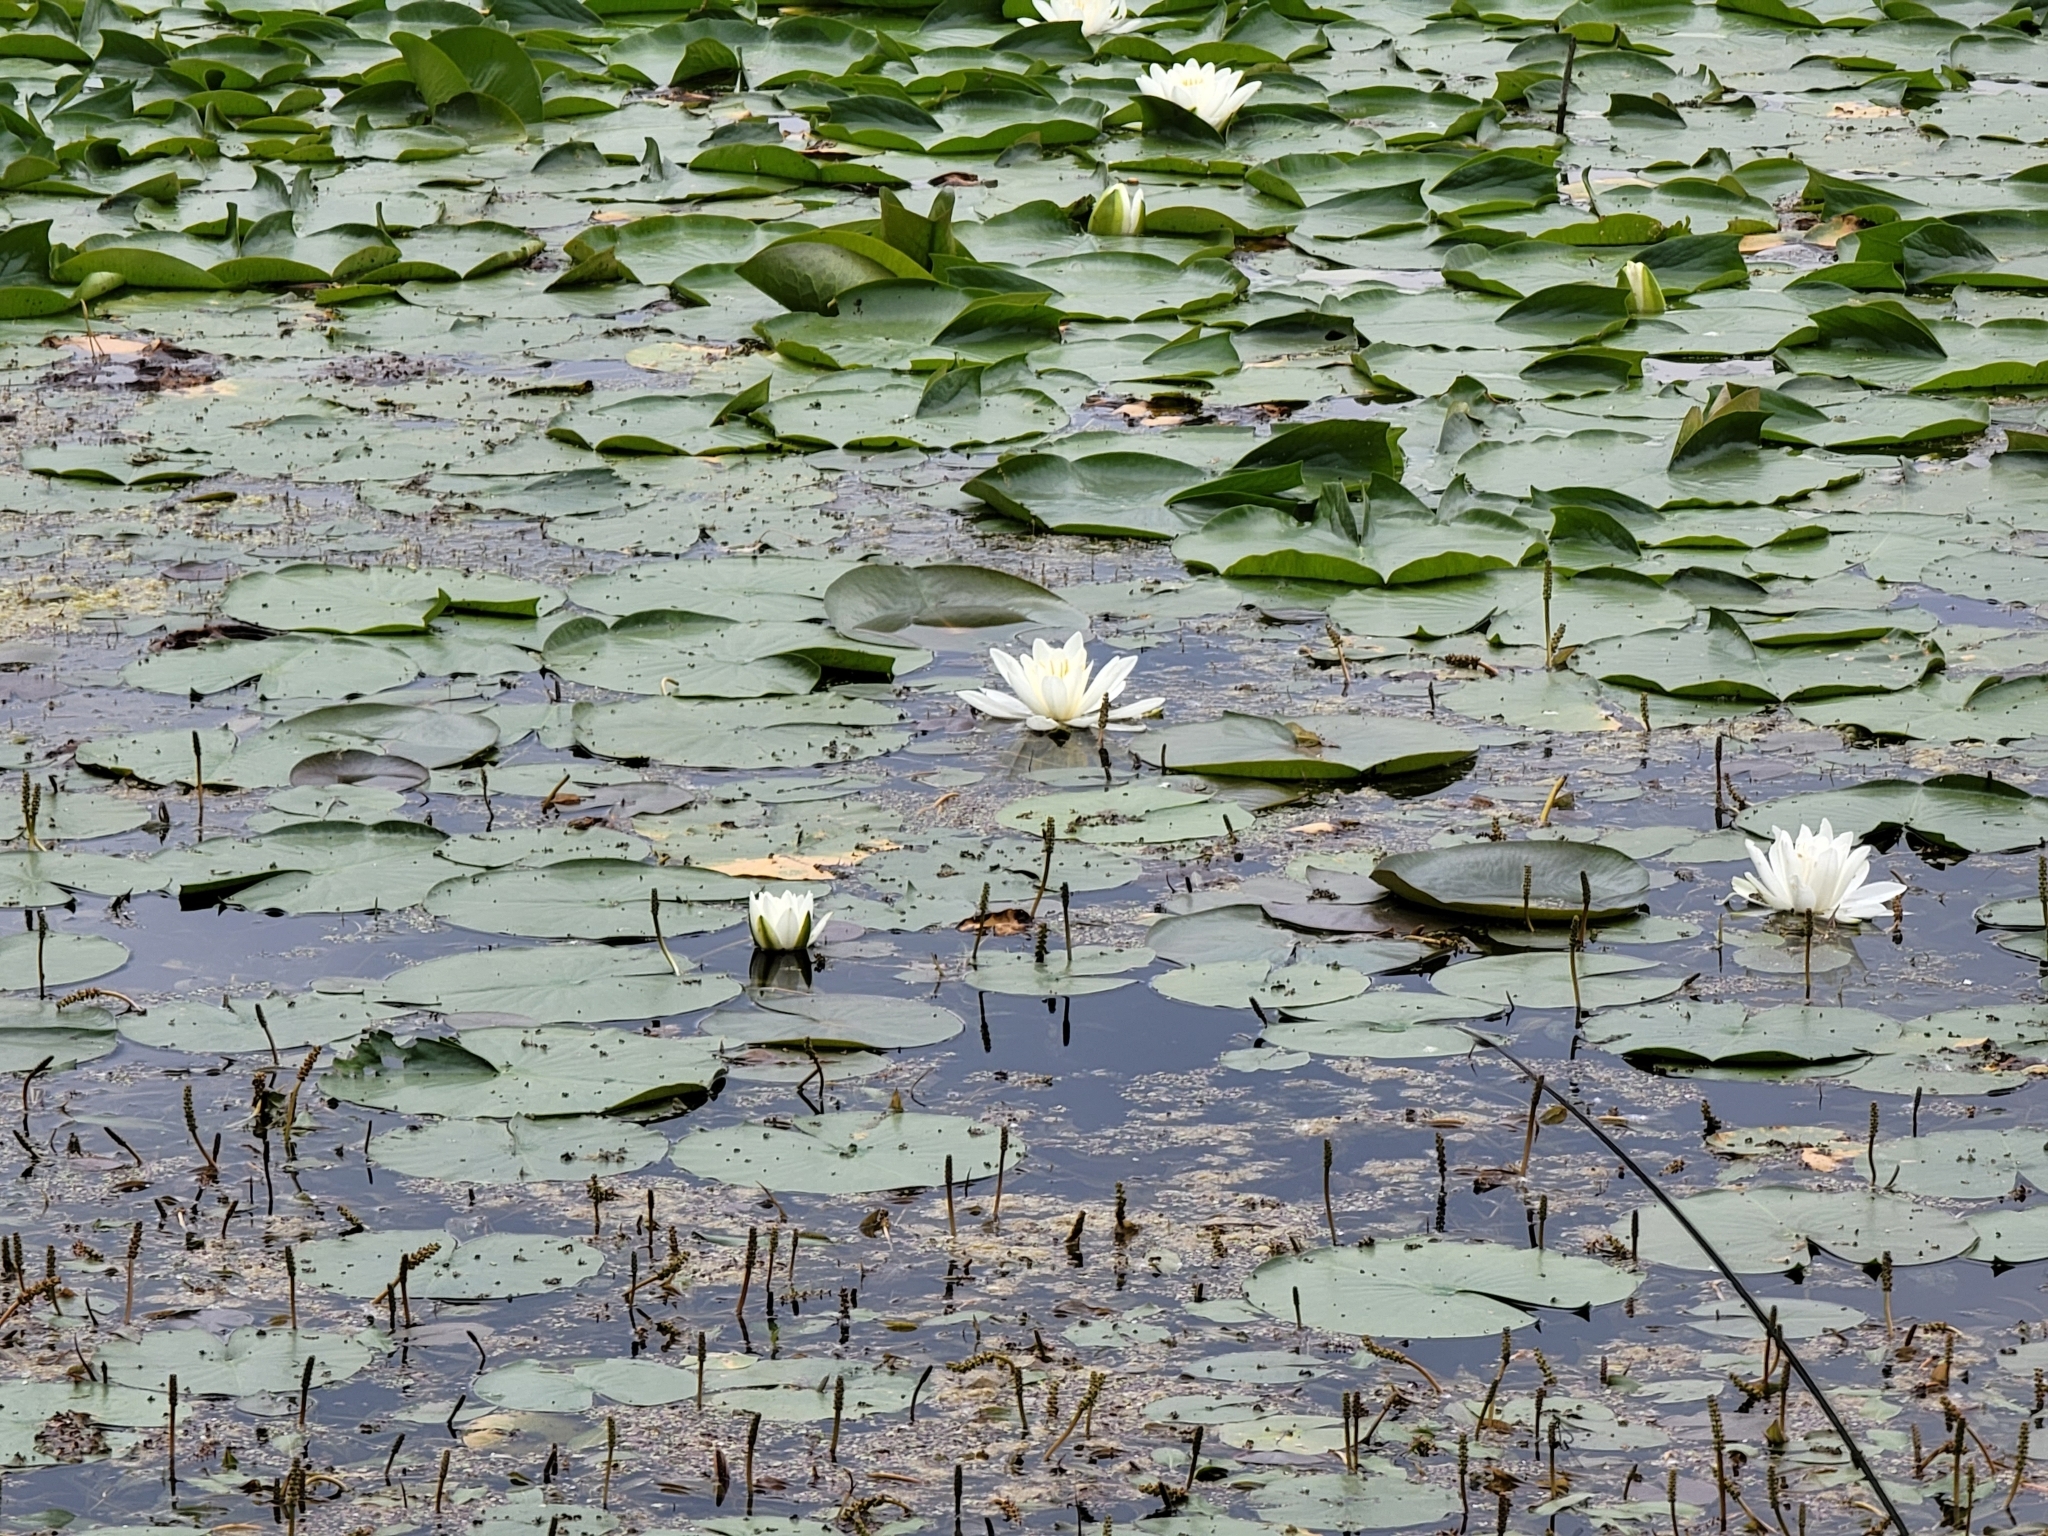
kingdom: Plantae
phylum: Tracheophyta
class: Magnoliopsida
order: Nymphaeales
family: Nymphaeaceae
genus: Nymphaea
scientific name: Nymphaea odorata
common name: Fragrant water-lily
